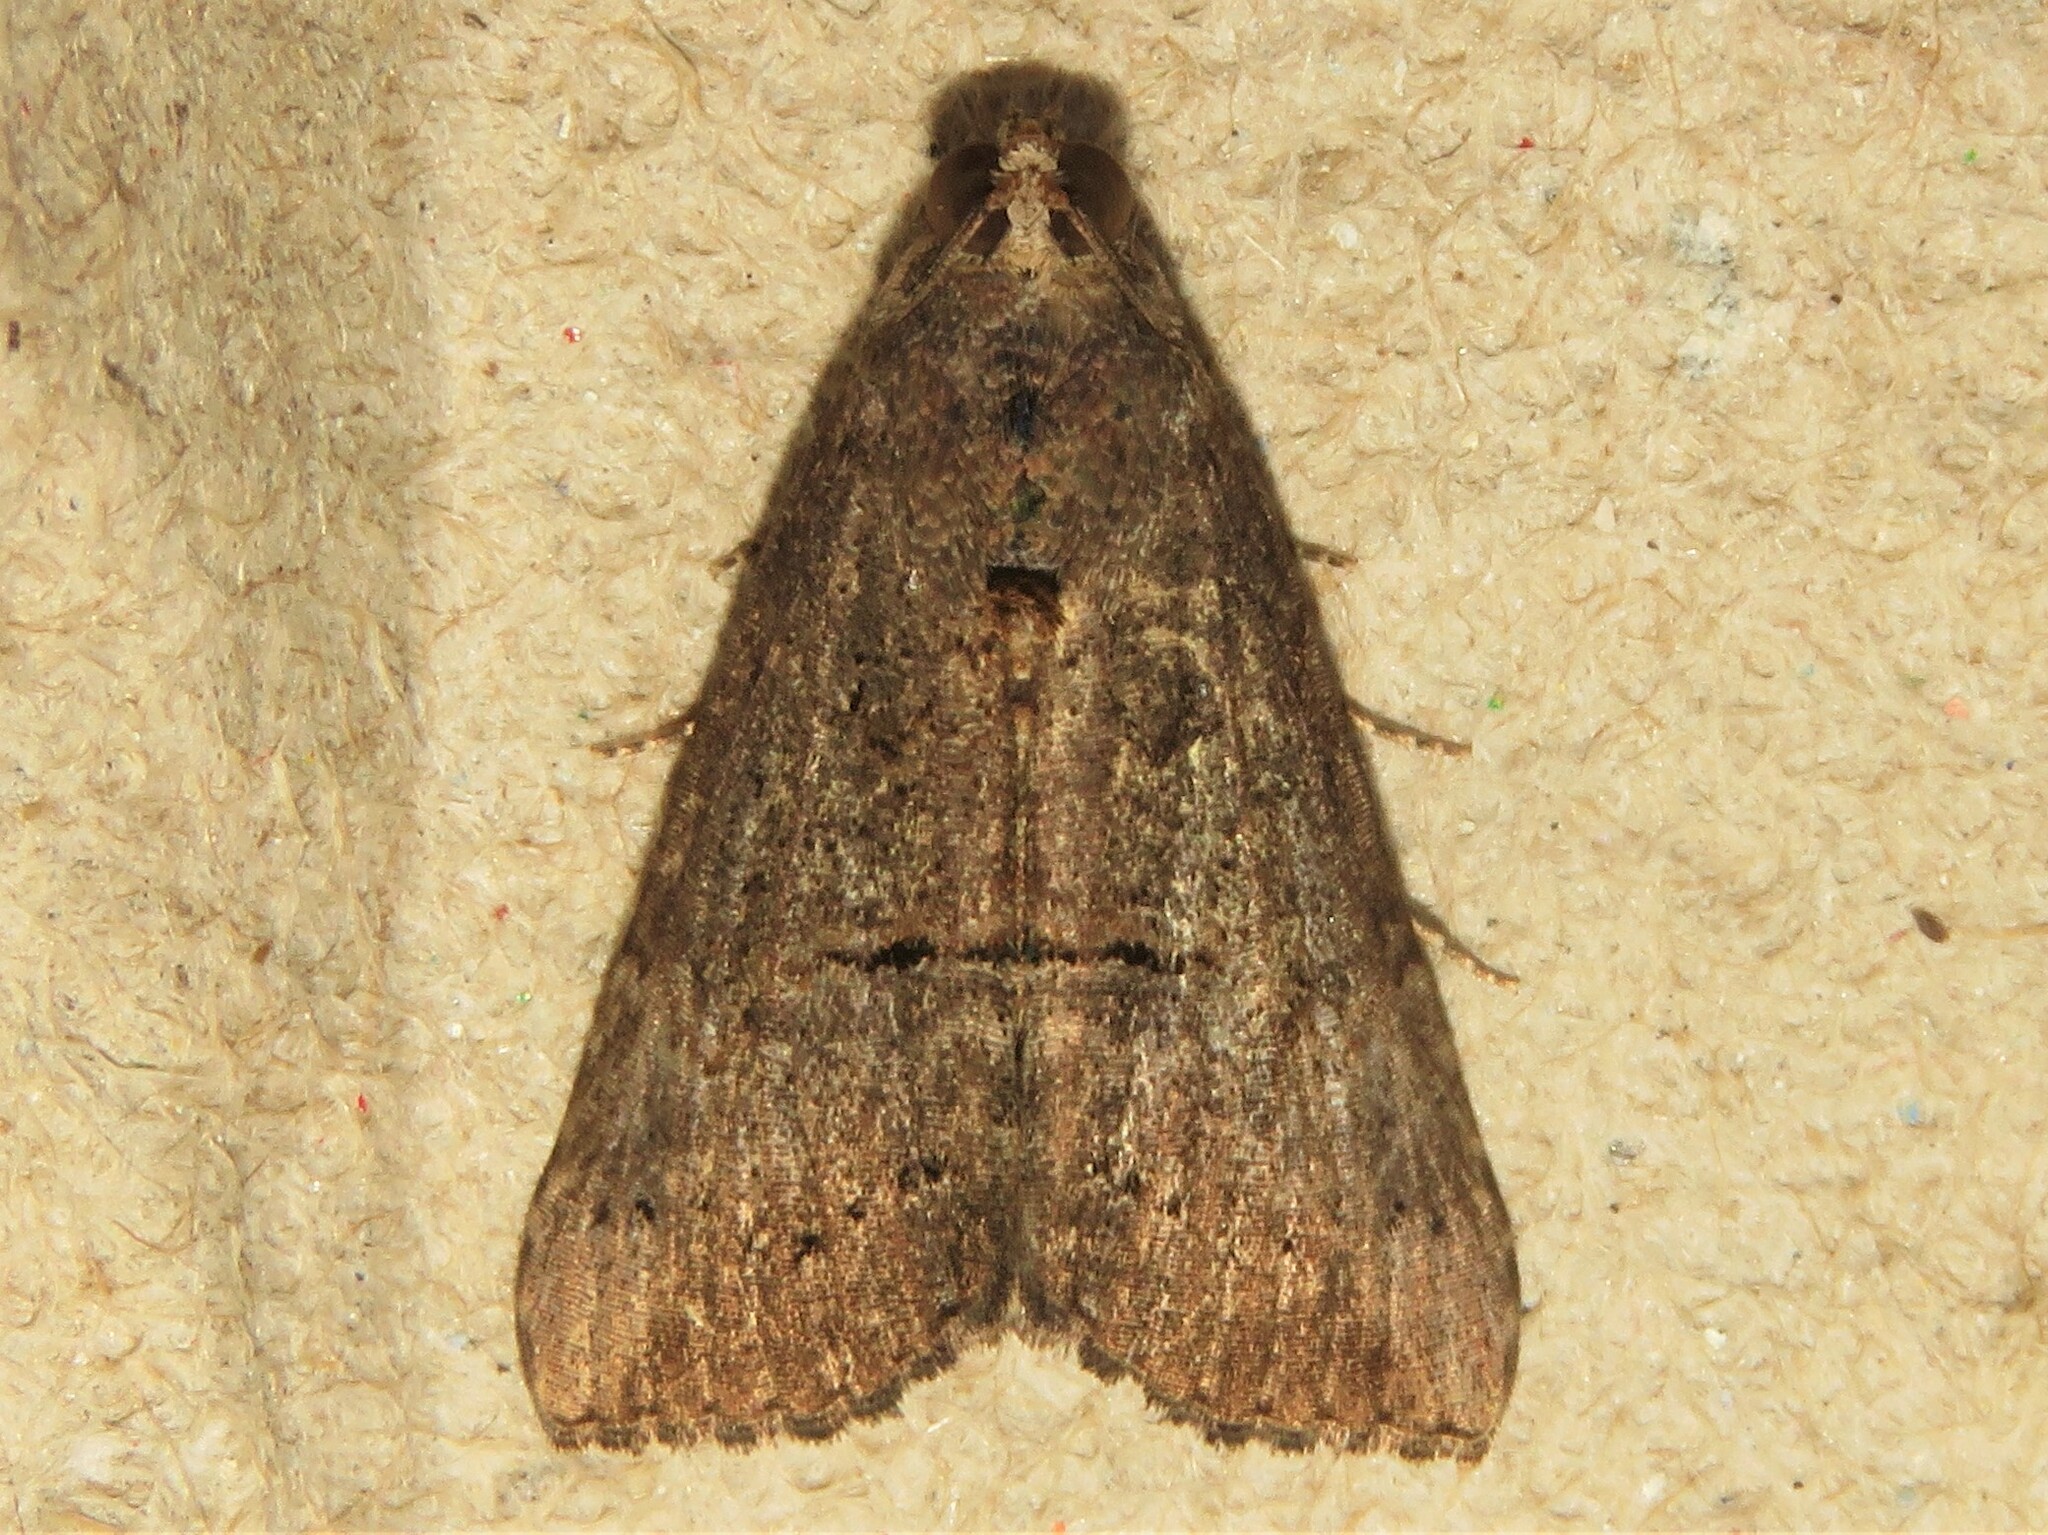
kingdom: Animalia
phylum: Arthropoda
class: Insecta
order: Lepidoptera
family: Erebidae
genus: Hypena
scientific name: Hypena scabra
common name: Green cloverworm
